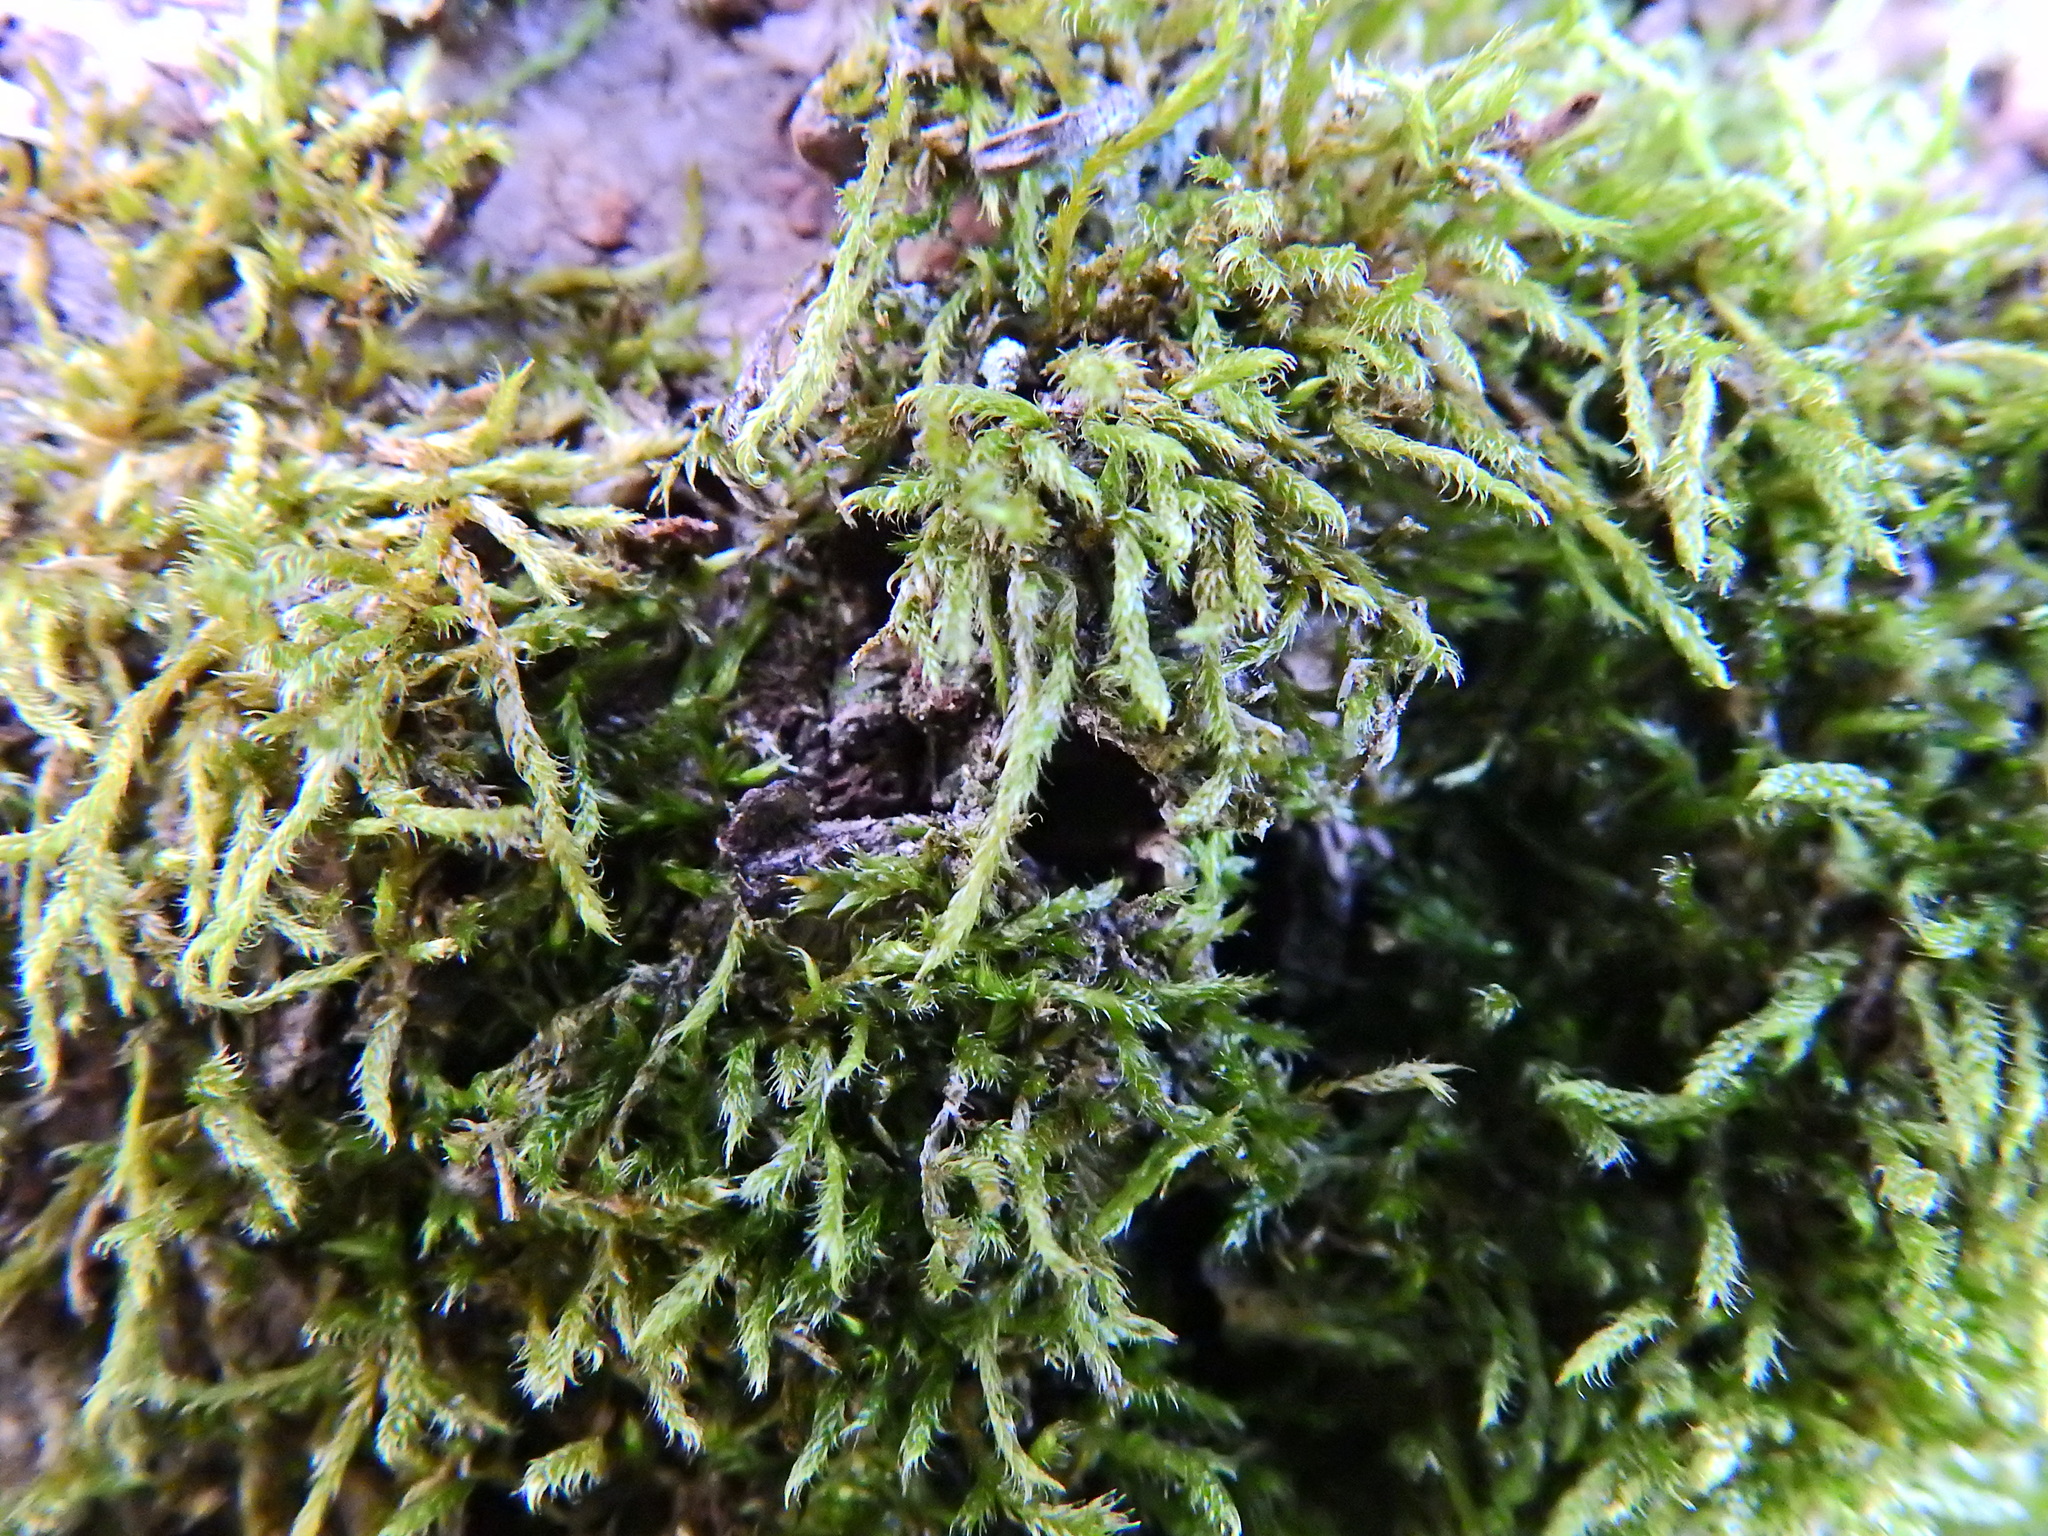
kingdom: Plantae
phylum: Bryophyta
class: Bryopsida
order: Hypnales
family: Hypnaceae
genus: Hypnum
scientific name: Hypnum cupressiforme
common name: Cypress-leaved plait-moss
